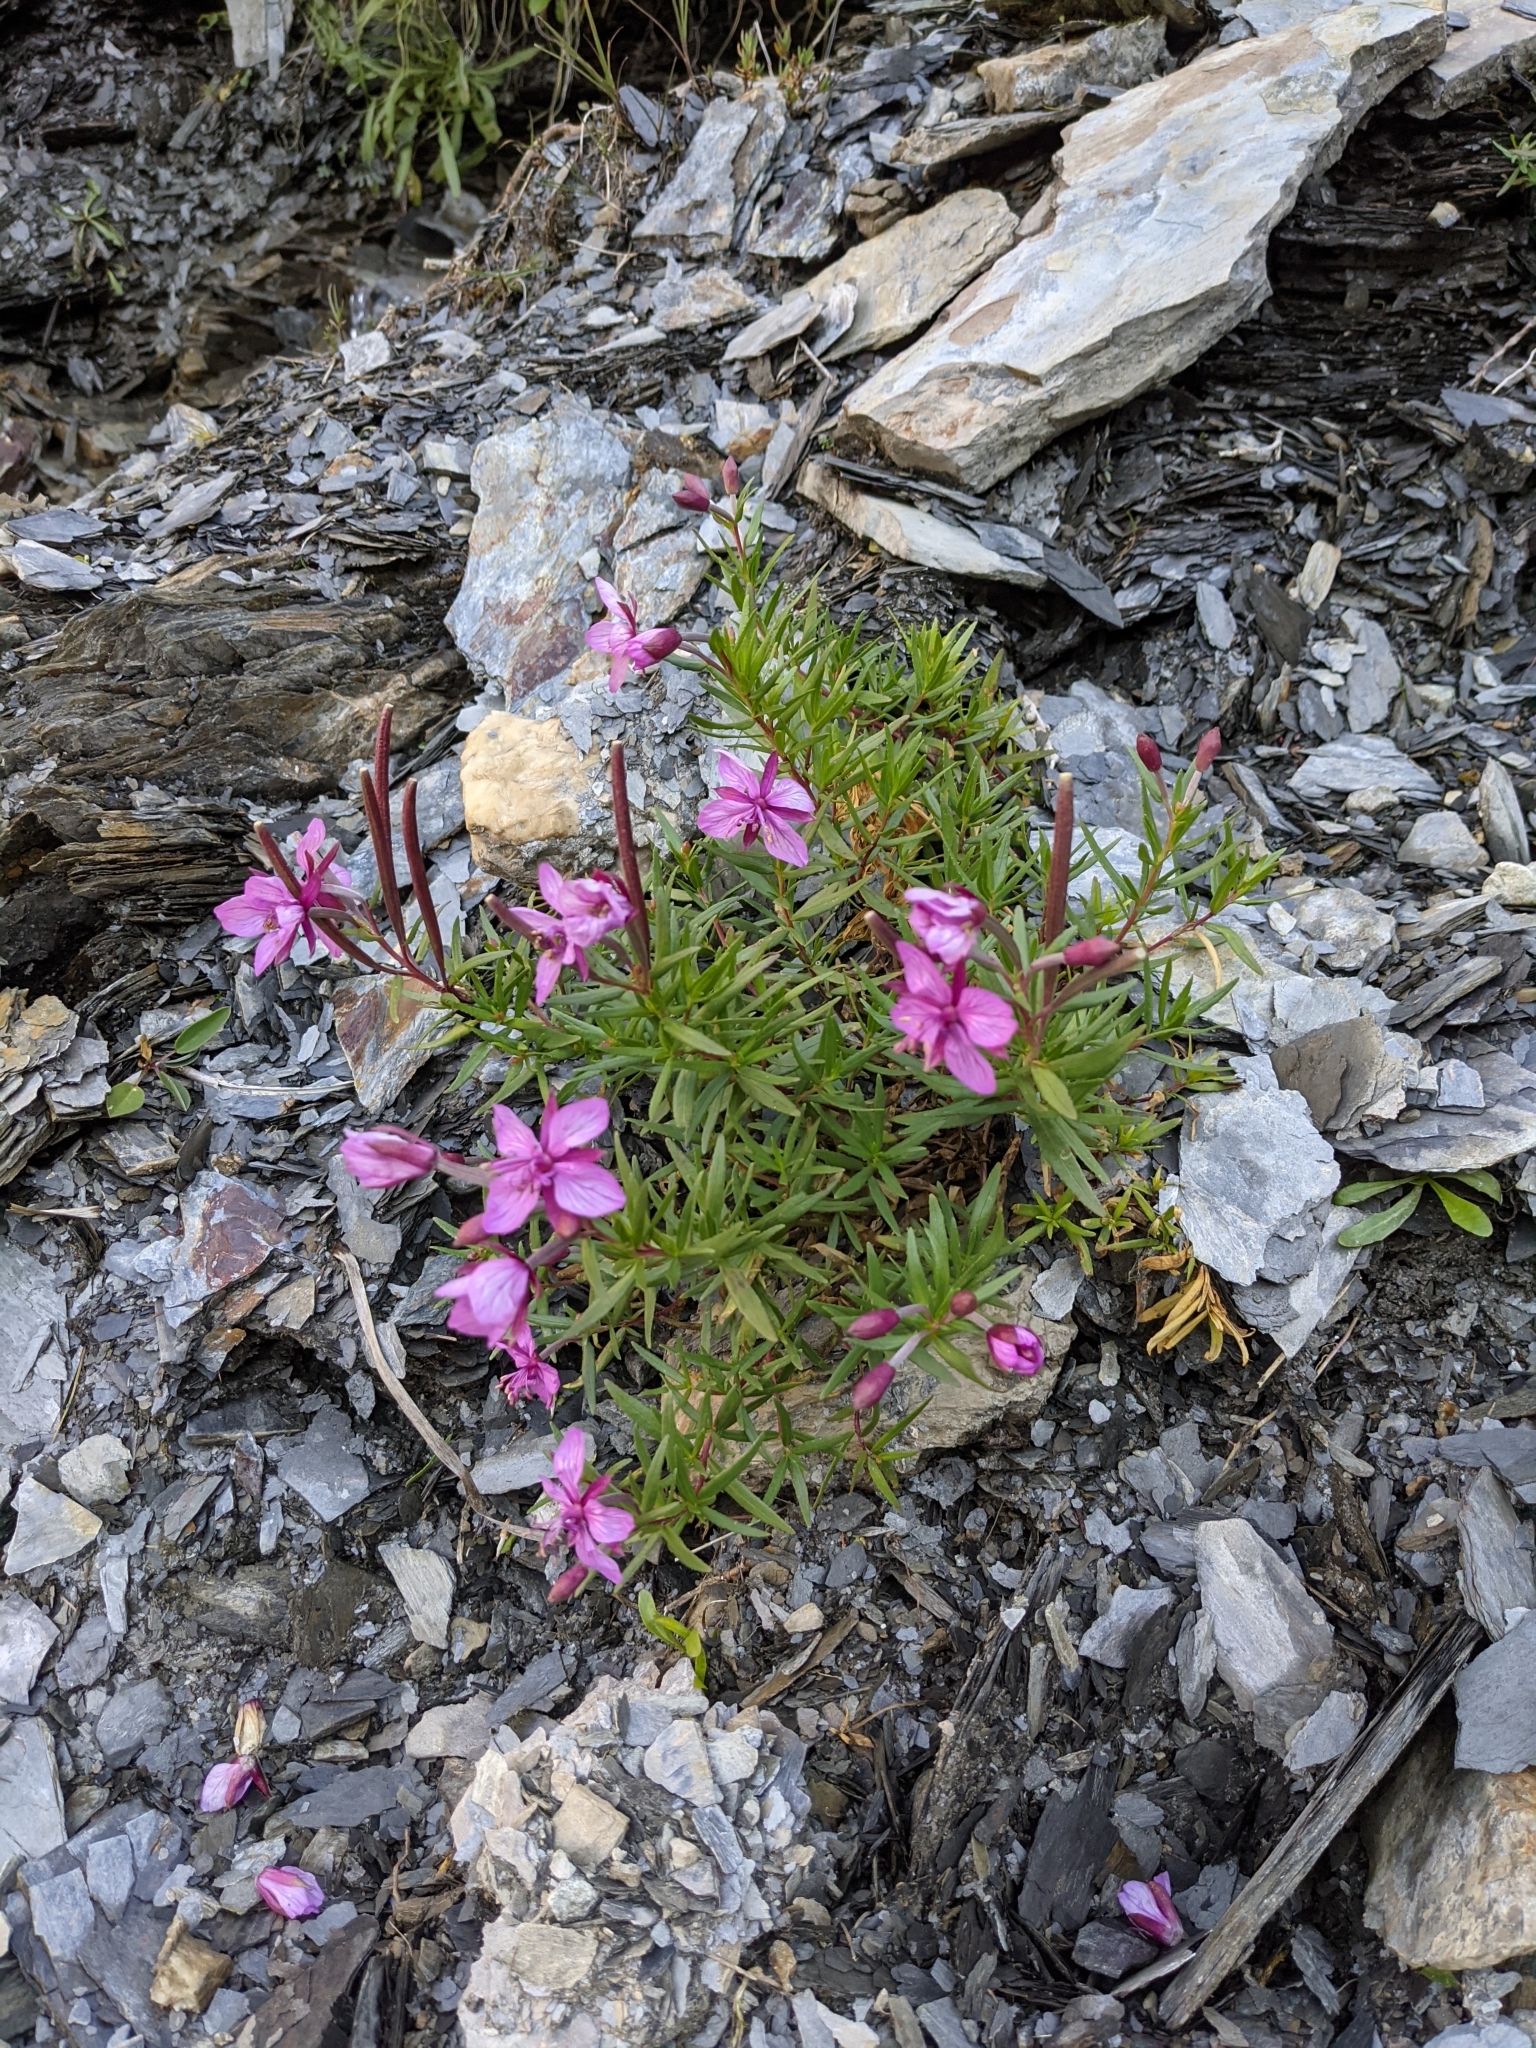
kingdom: Plantae
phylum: Tracheophyta
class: Magnoliopsida
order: Myrtales
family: Onagraceae
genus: Chamaenerion
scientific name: Chamaenerion fleischeri
